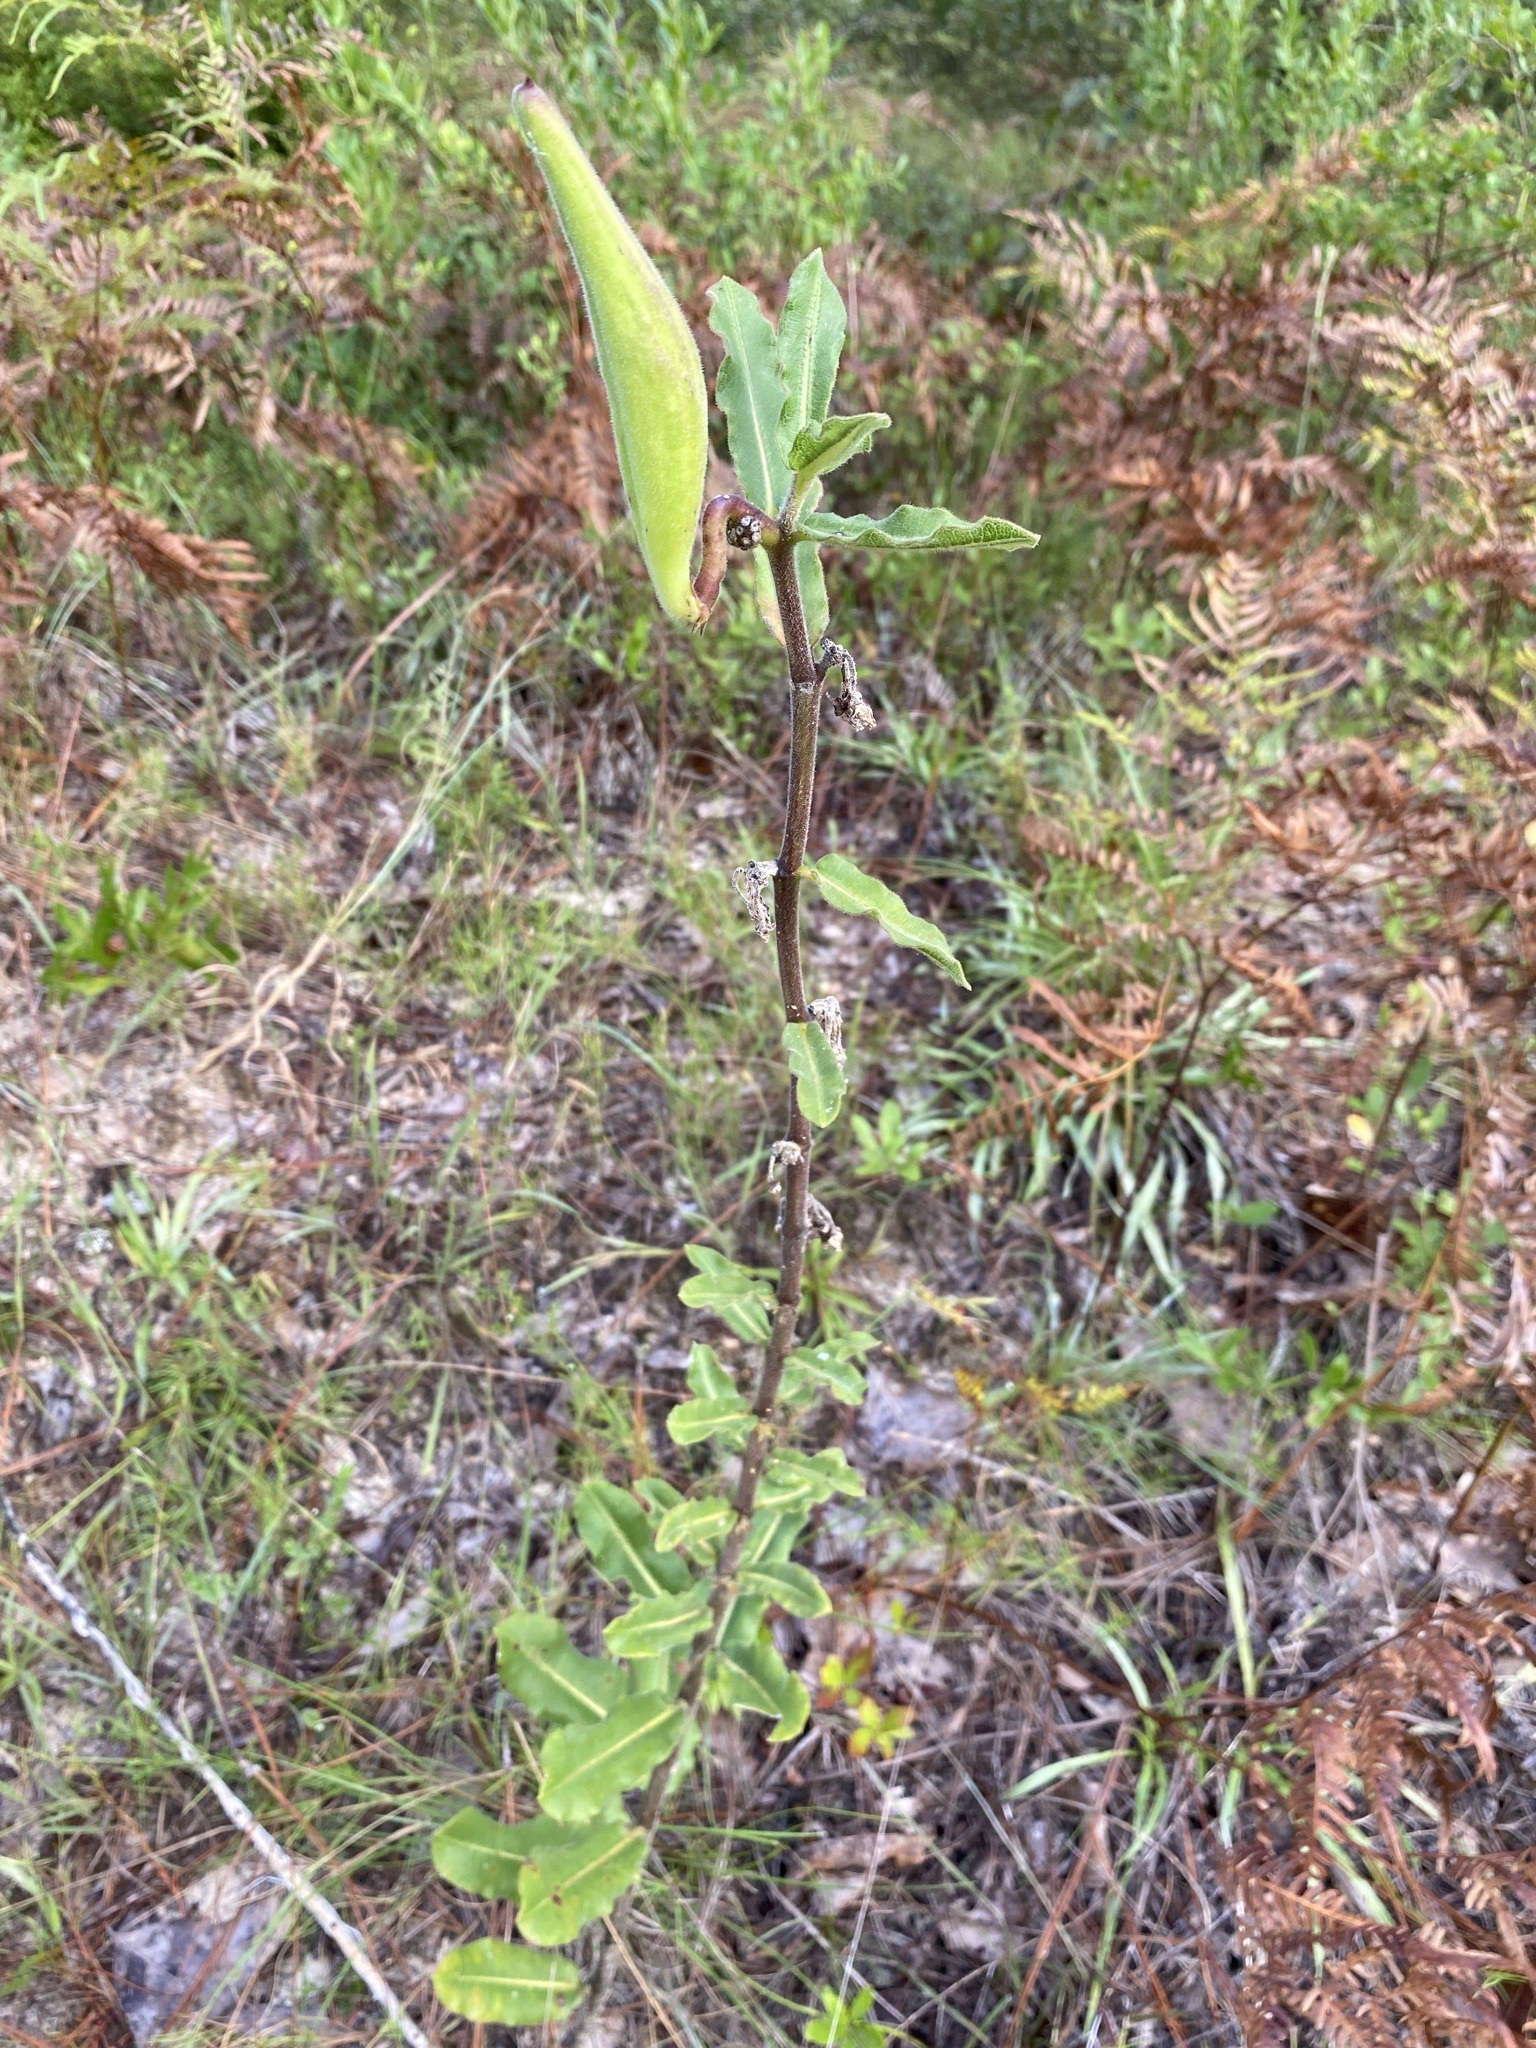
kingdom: Plantae
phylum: Tracheophyta
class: Magnoliopsida
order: Gentianales
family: Apocynaceae
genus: Asclepias
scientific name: Asclepias obovata
